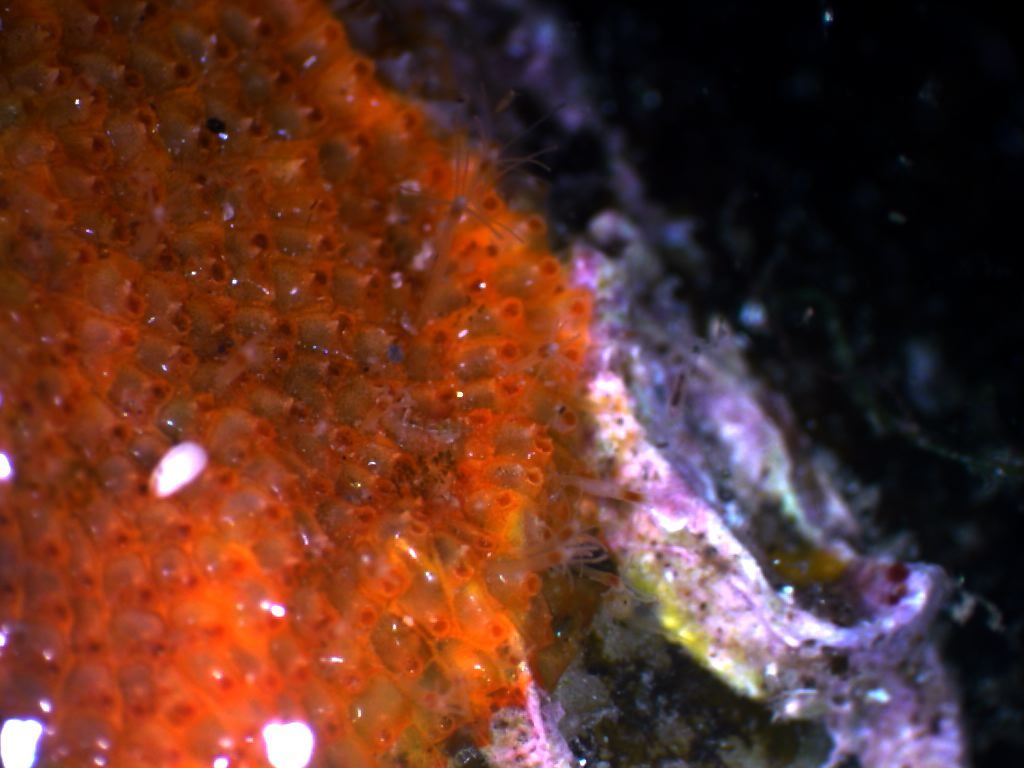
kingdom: Animalia
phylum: Cnidaria
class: Hydrozoa
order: Anthoathecata
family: Cytaeididae
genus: Perarella
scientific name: Perarella schneideri
